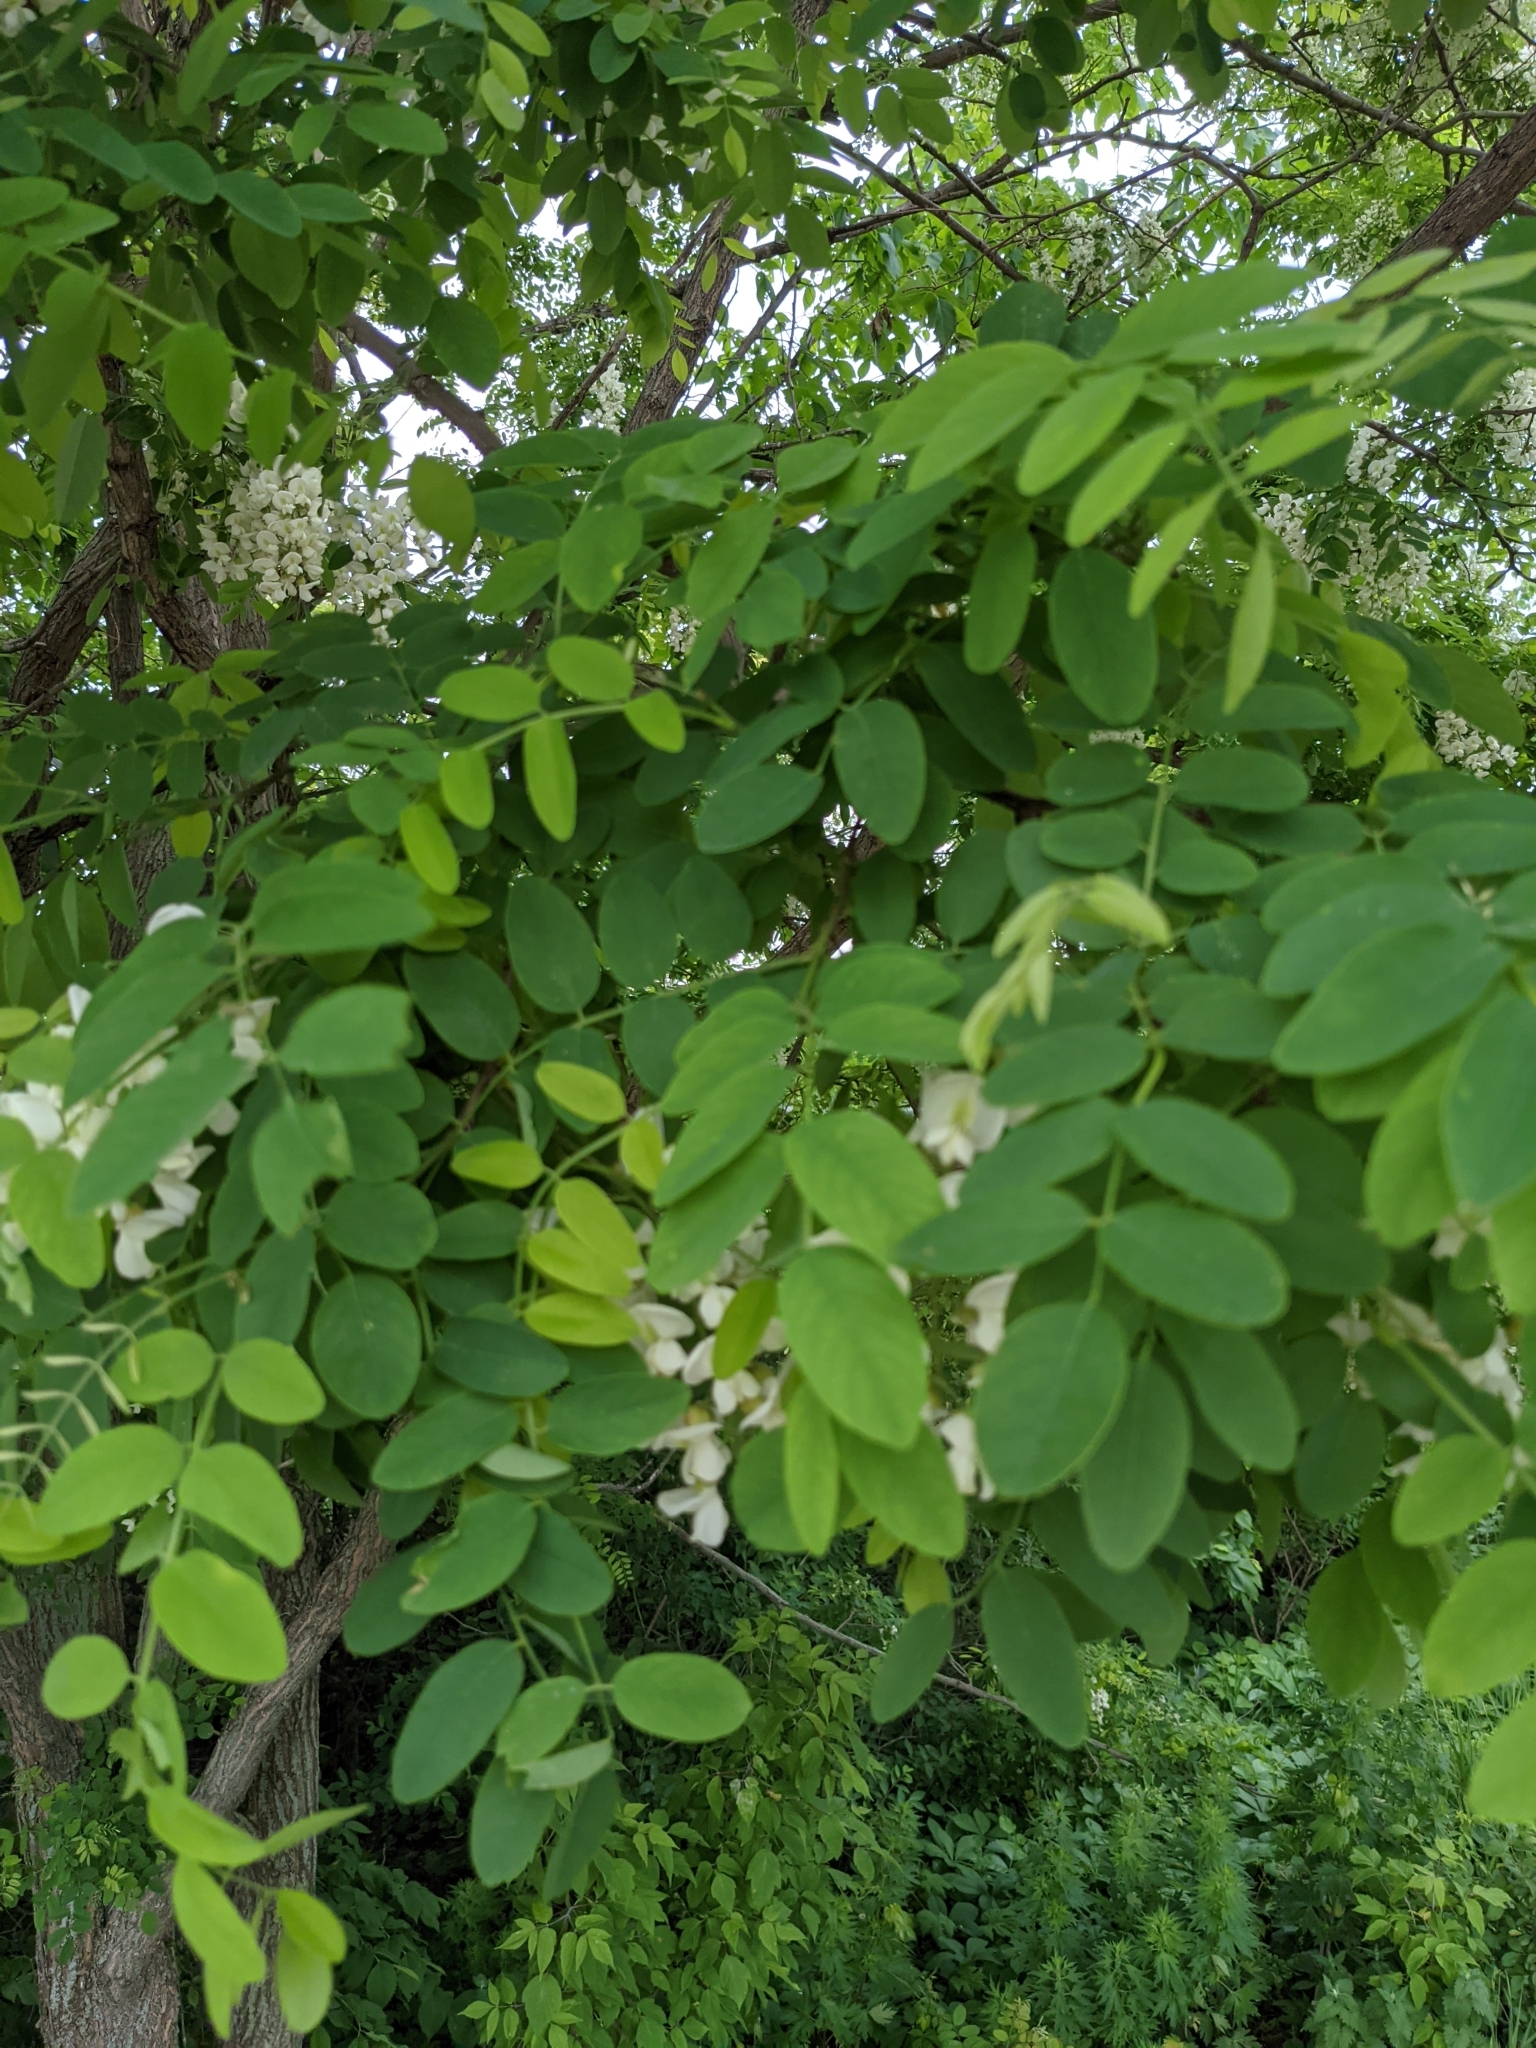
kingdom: Plantae
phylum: Tracheophyta
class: Magnoliopsida
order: Fabales
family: Fabaceae
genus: Robinia
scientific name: Robinia pseudoacacia
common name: Black locust
